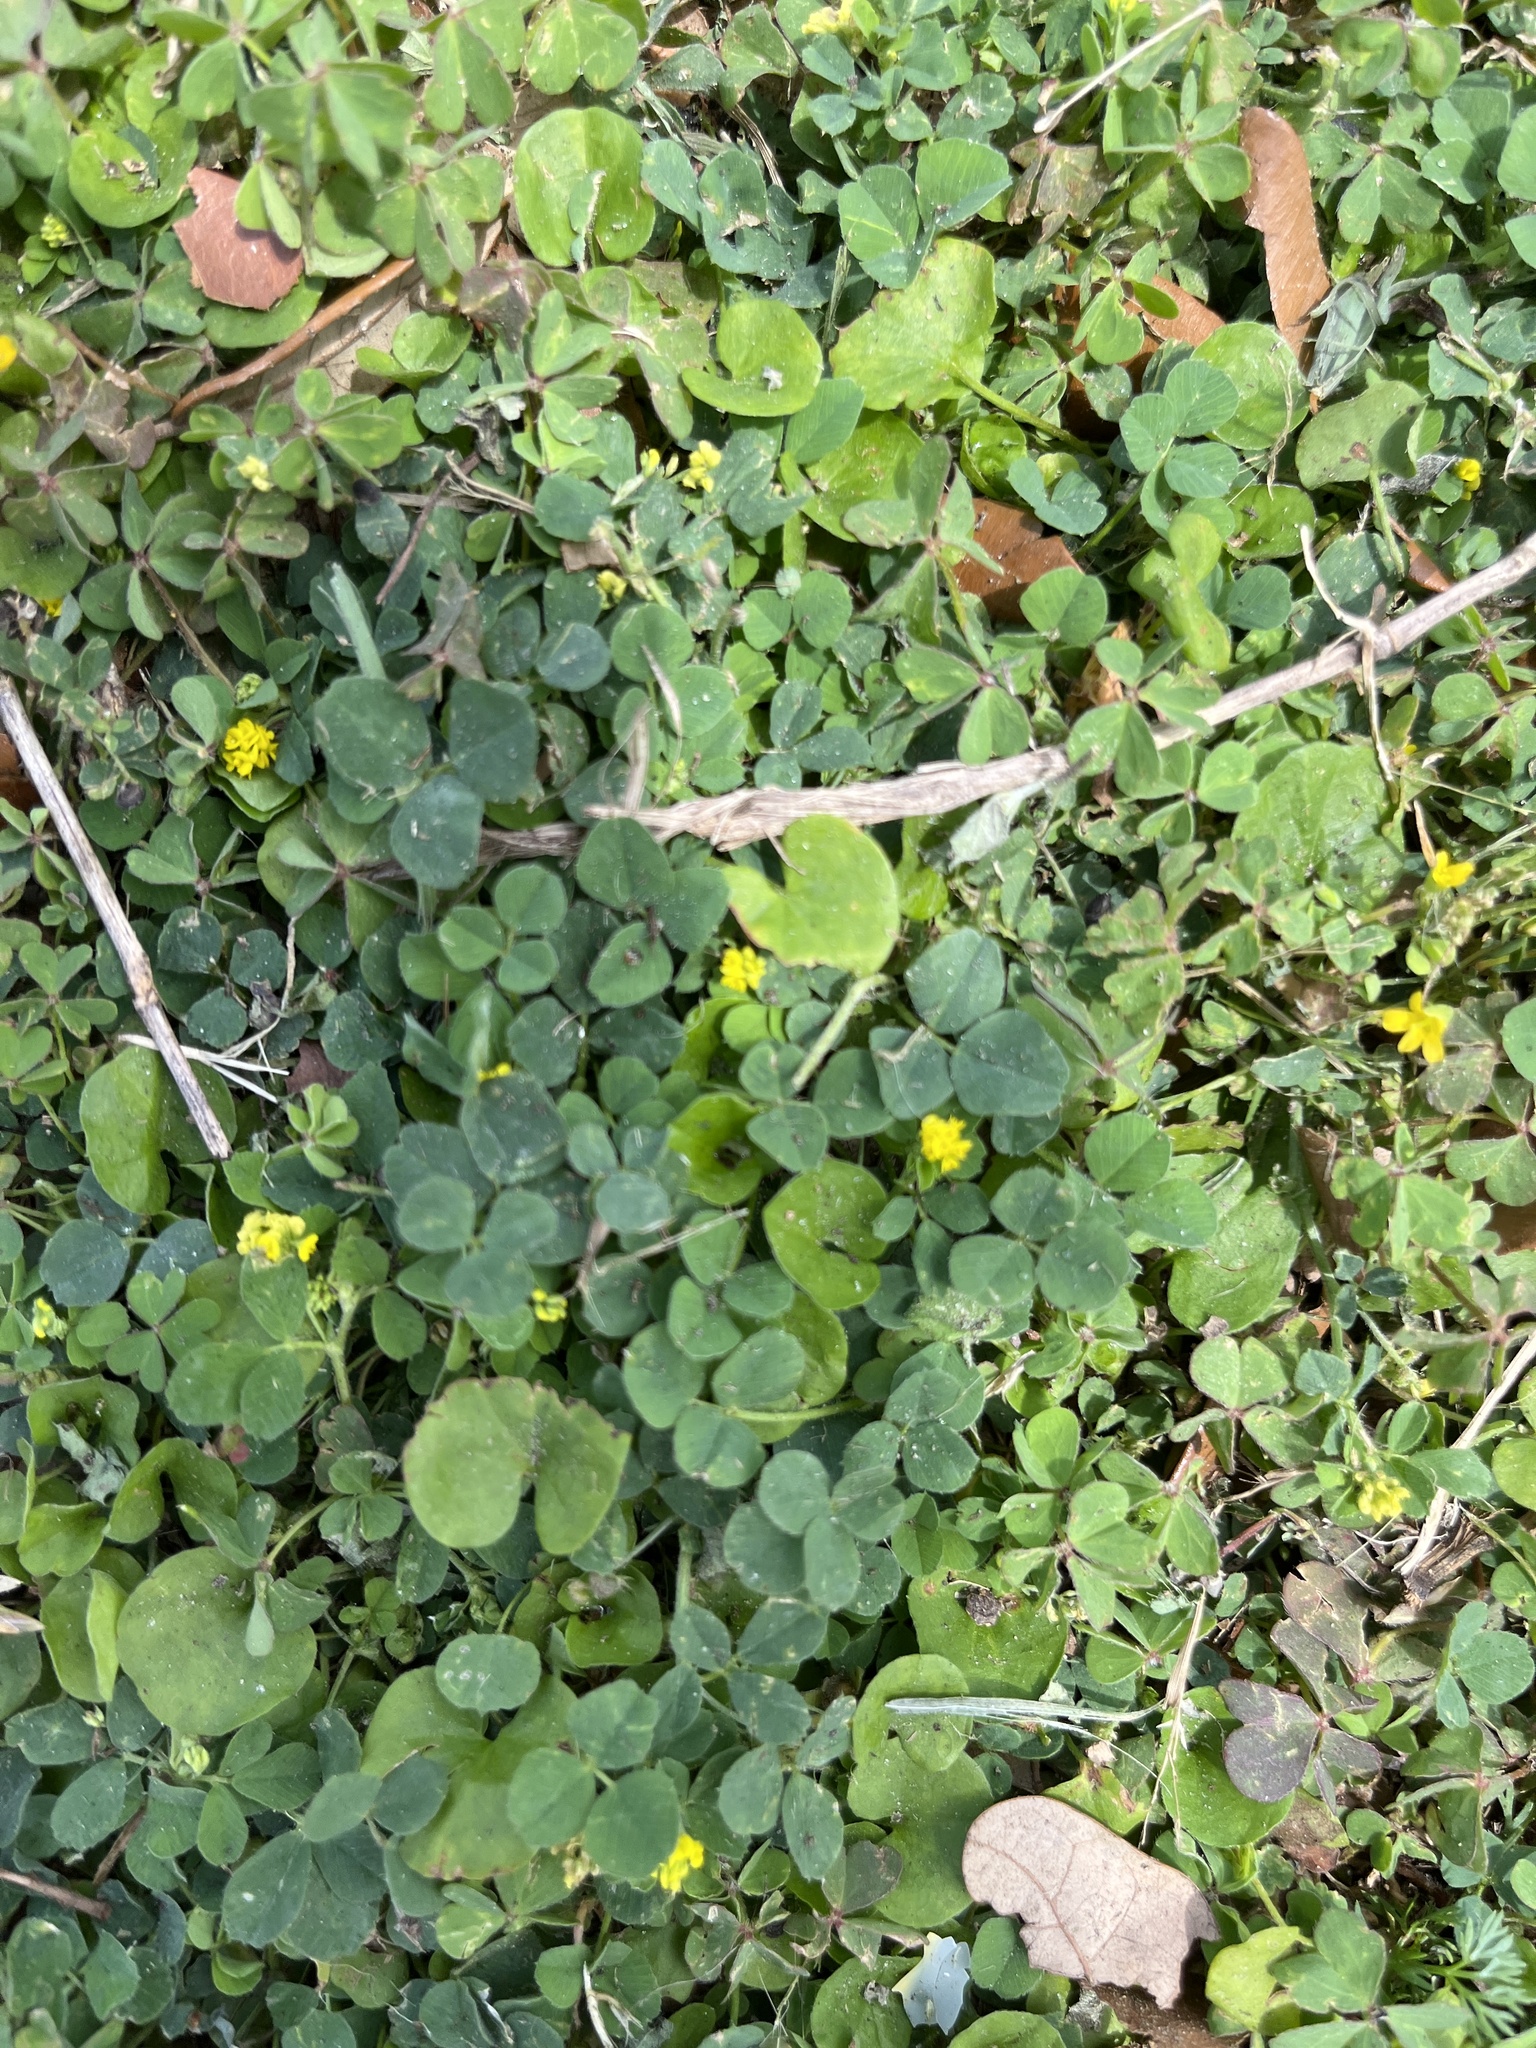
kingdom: Plantae
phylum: Tracheophyta
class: Magnoliopsida
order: Fabales
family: Fabaceae
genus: Medicago
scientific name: Medicago lupulina
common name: Black medick
